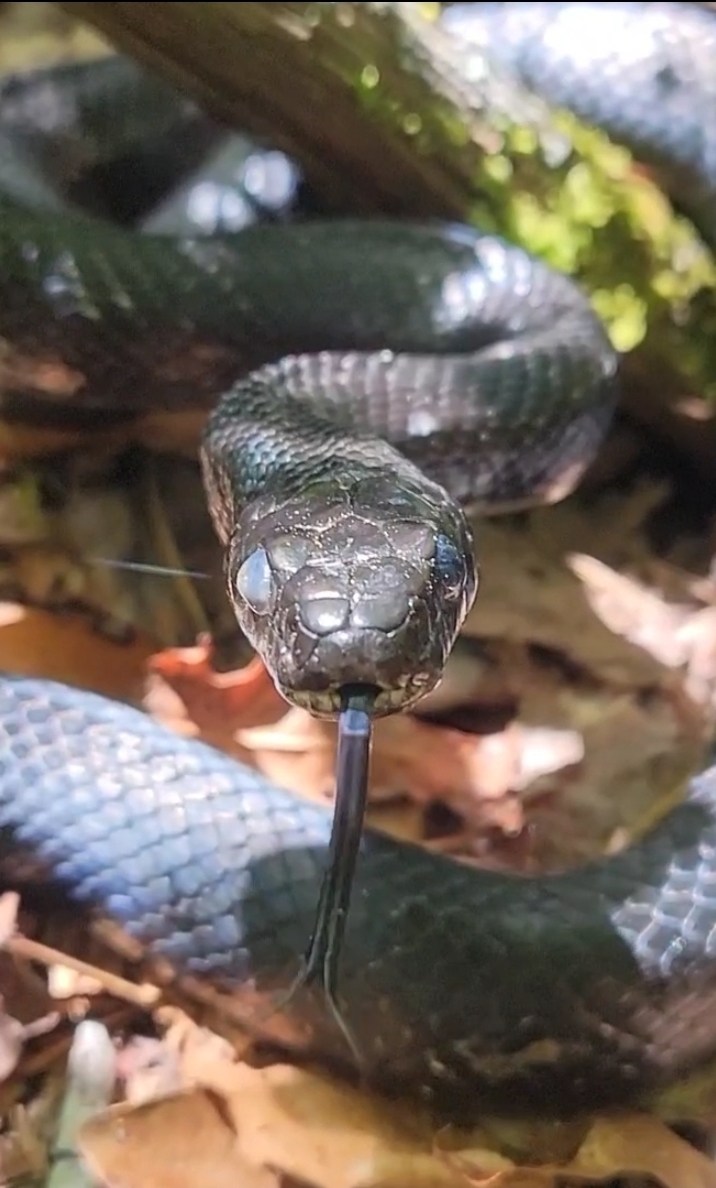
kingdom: Animalia
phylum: Chordata
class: Squamata
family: Colubridae
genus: Pantherophis
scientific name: Pantherophis alleghaniensis
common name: Eastern rat snake
